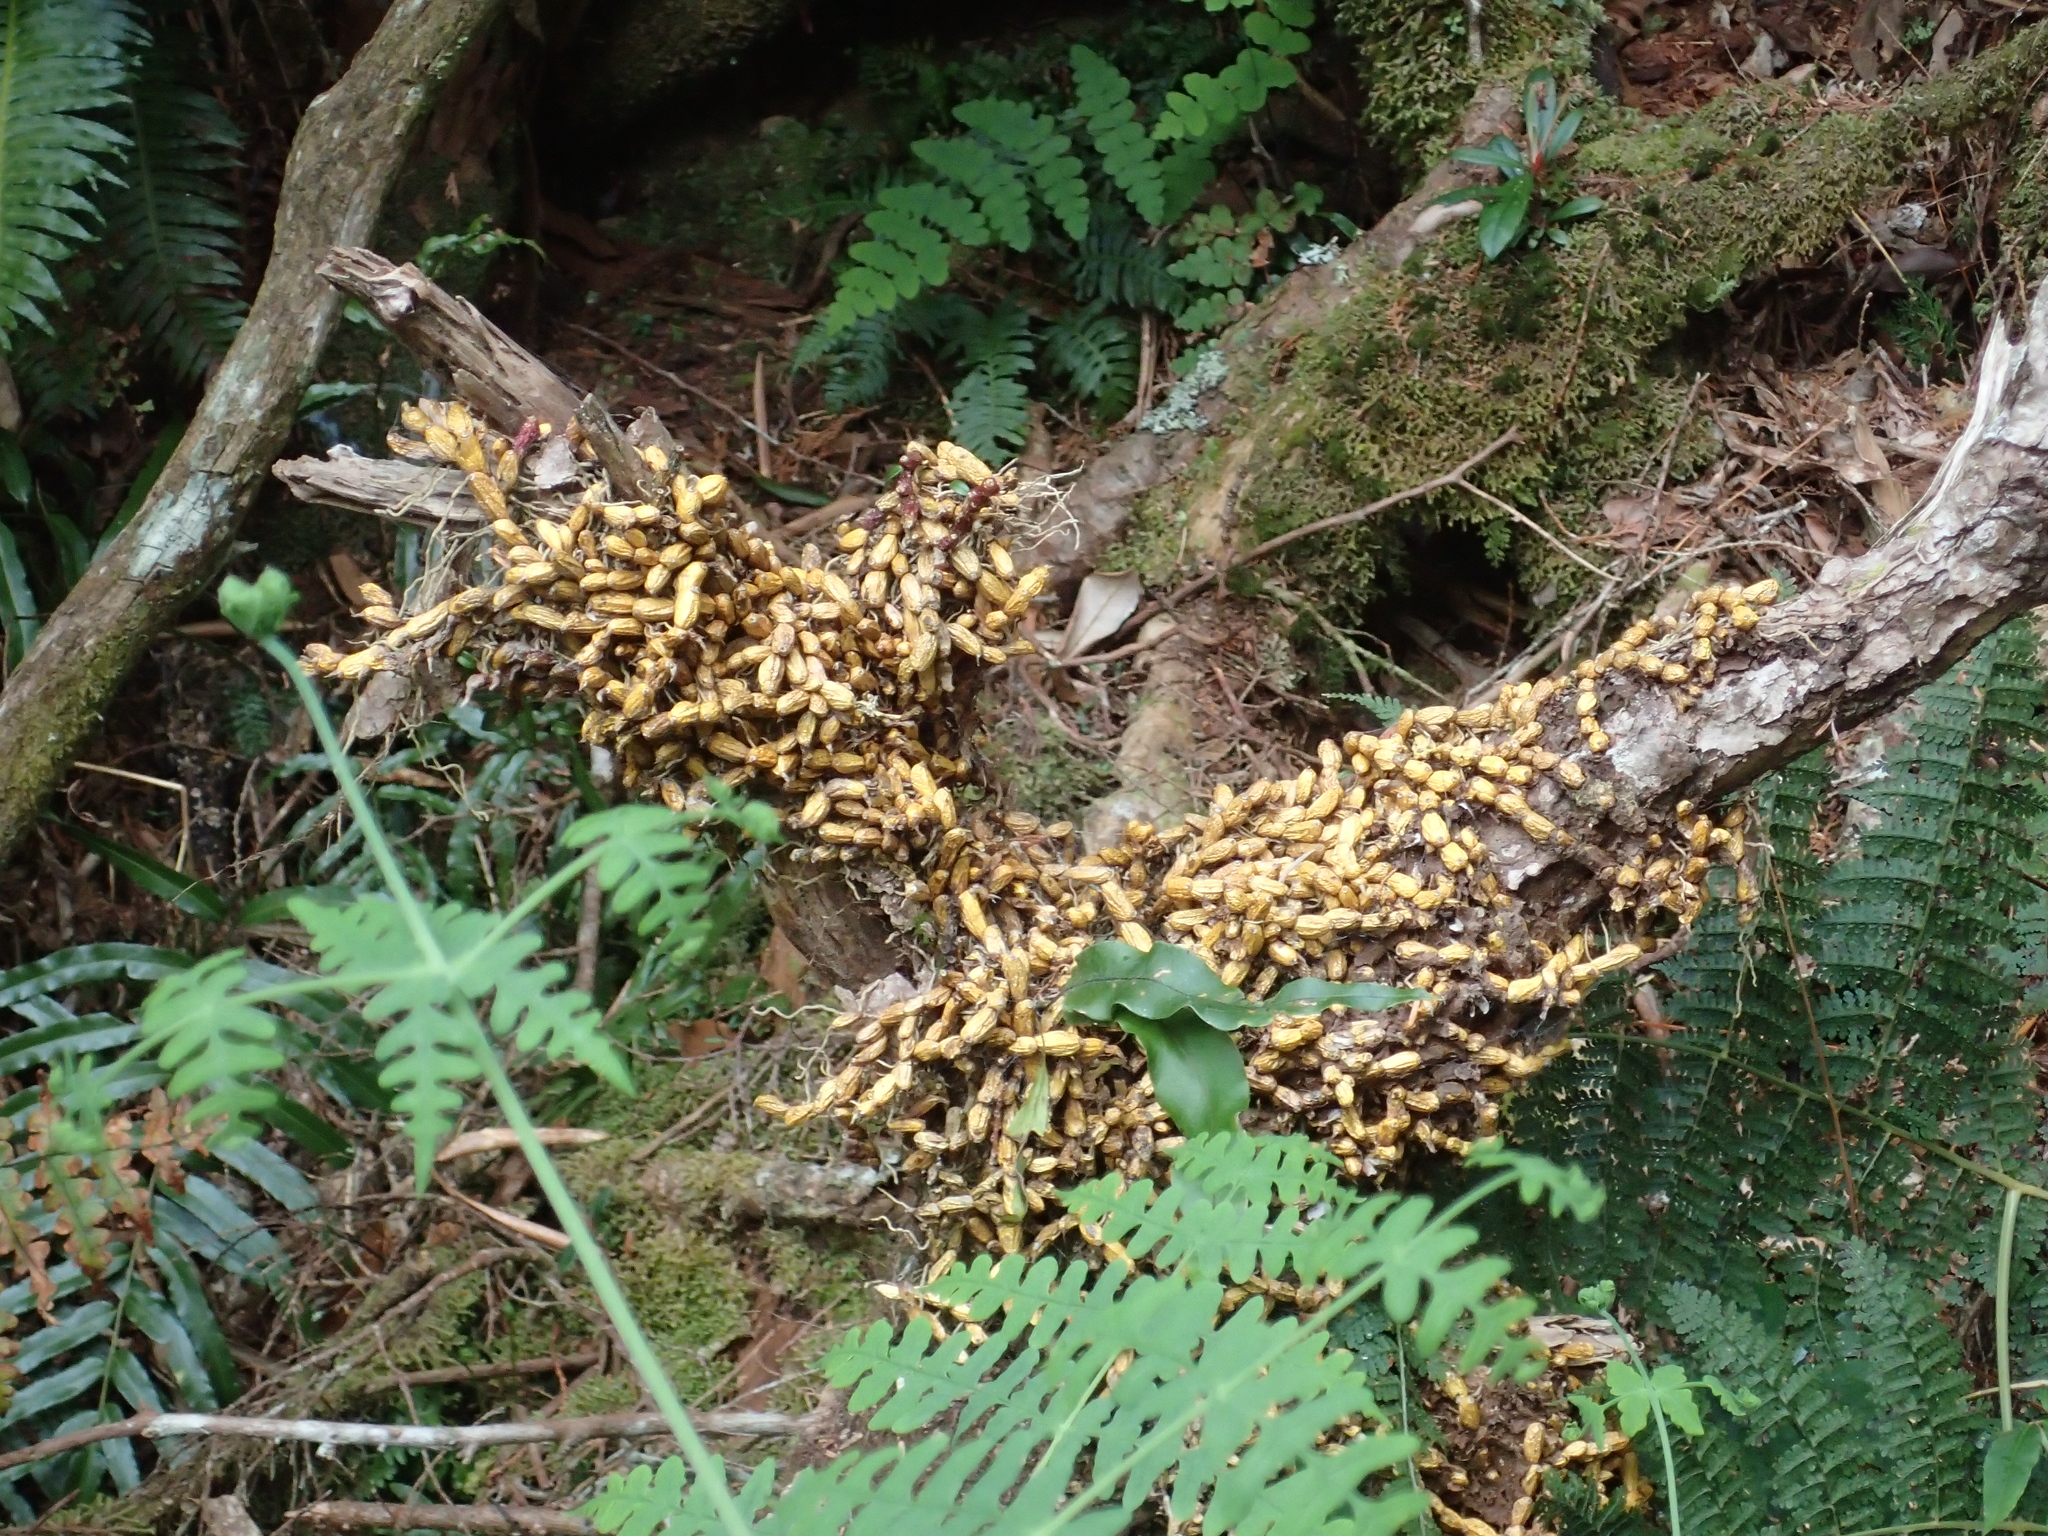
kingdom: Plantae
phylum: Tracheophyta
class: Liliopsida
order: Asparagales
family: Orchidaceae
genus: Dendrobium
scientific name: Dendrobium sanseiense
